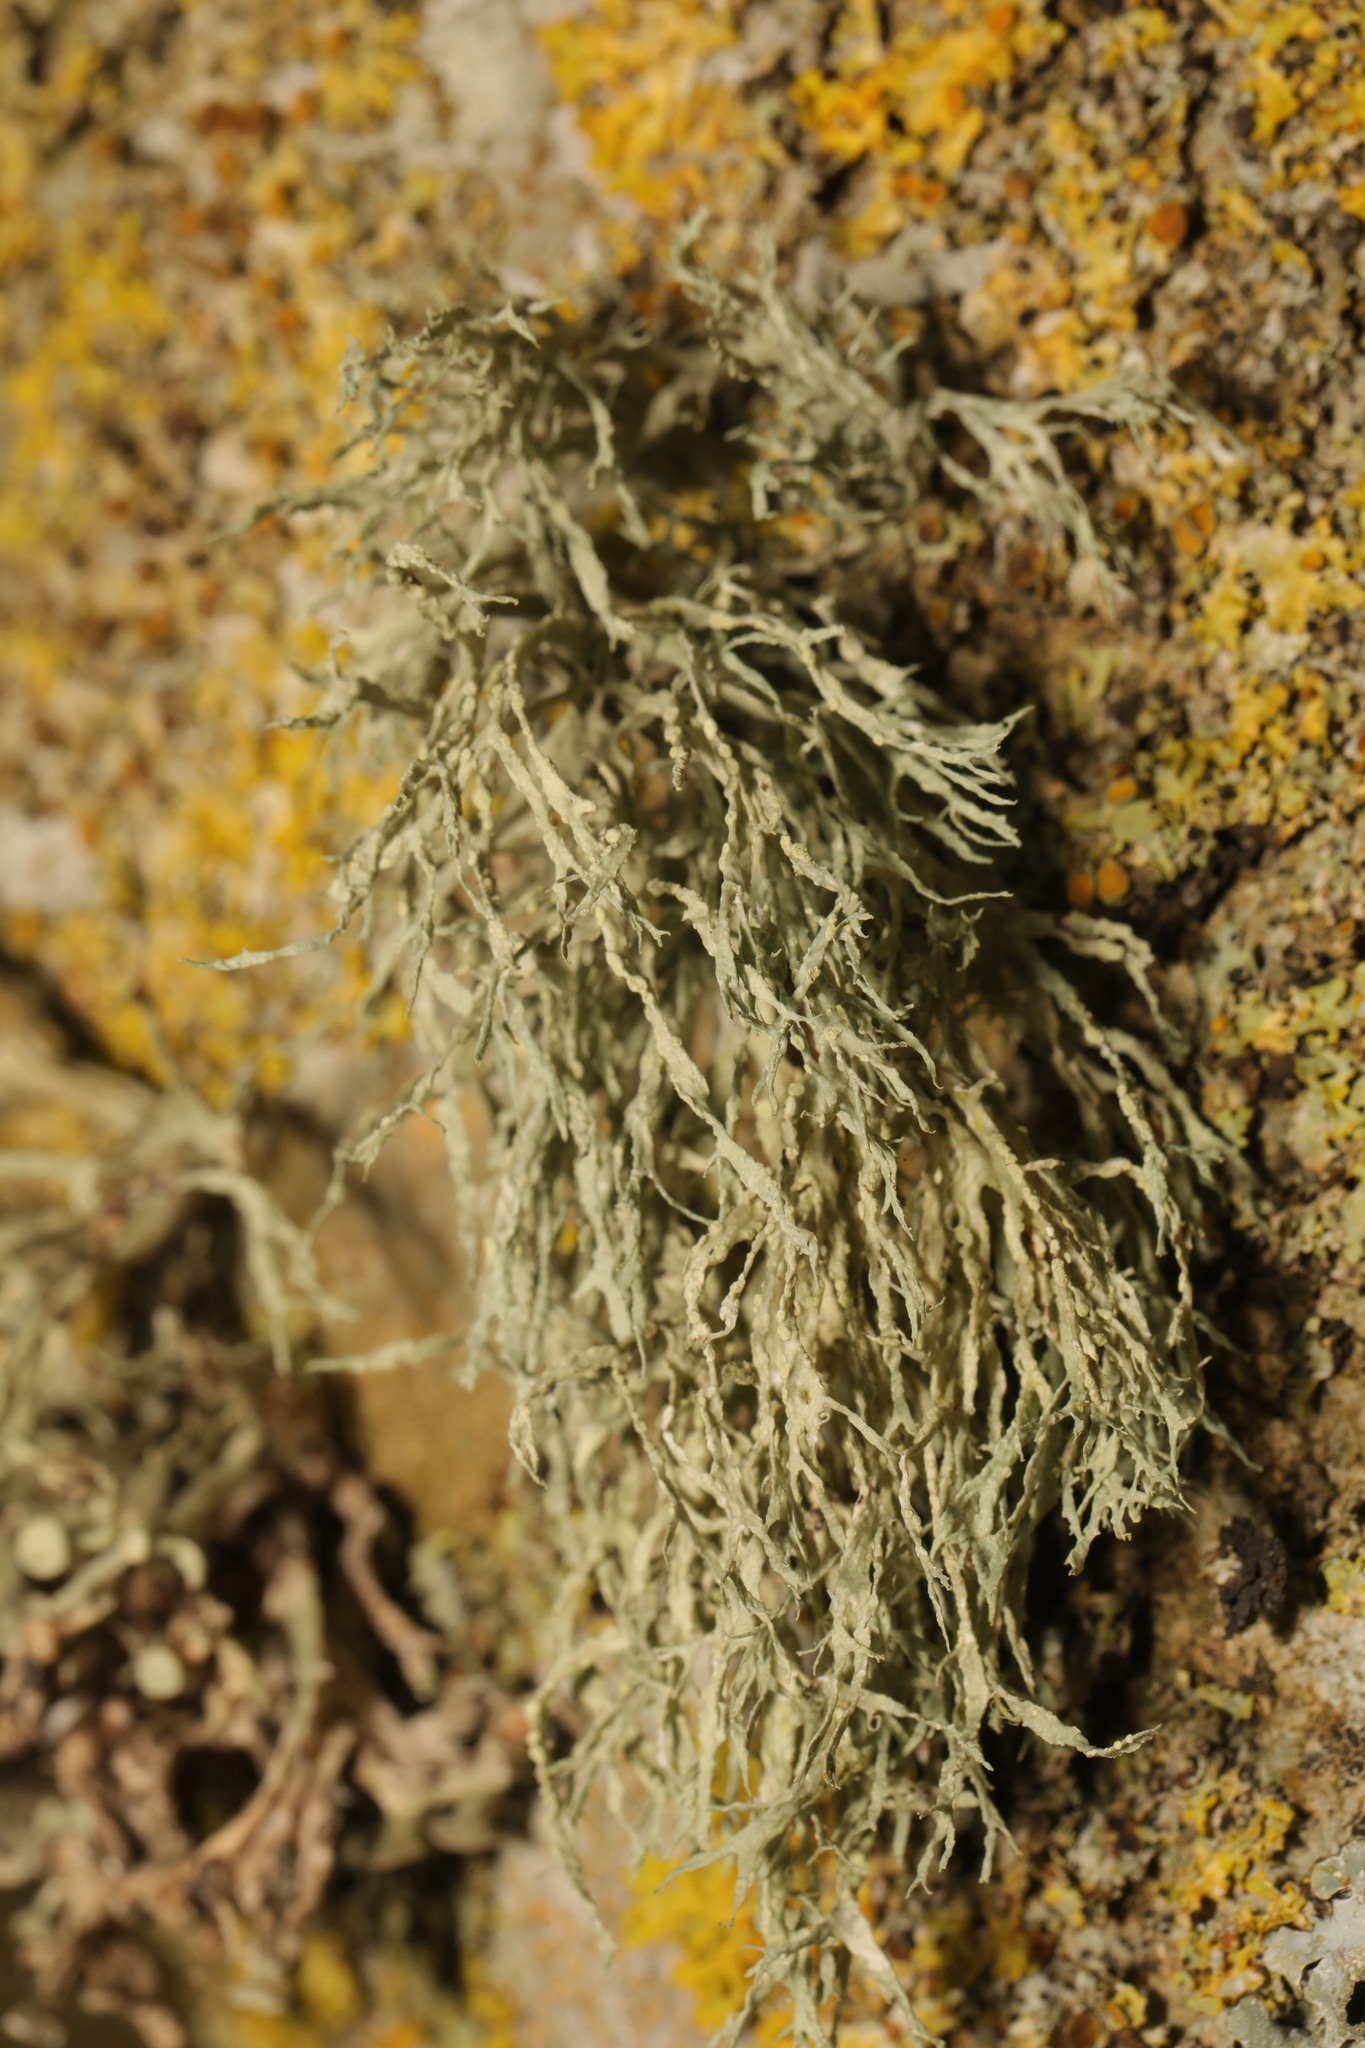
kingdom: Fungi
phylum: Ascomycota
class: Lecanoromycetes
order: Lecanorales
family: Ramalinaceae
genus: Ramalina
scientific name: Ramalina farinacea
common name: Farinose cartilage lichen
